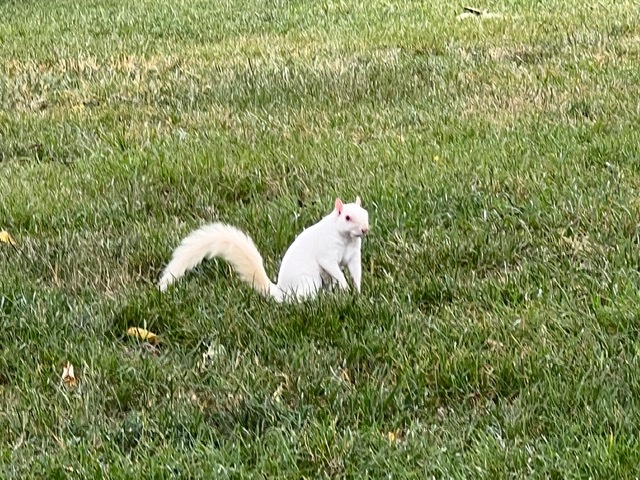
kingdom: Animalia
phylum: Chordata
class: Mammalia
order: Rodentia
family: Sciuridae
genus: Sciurus
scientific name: Sciurus carolinensis
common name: Eastern gray squirrel
